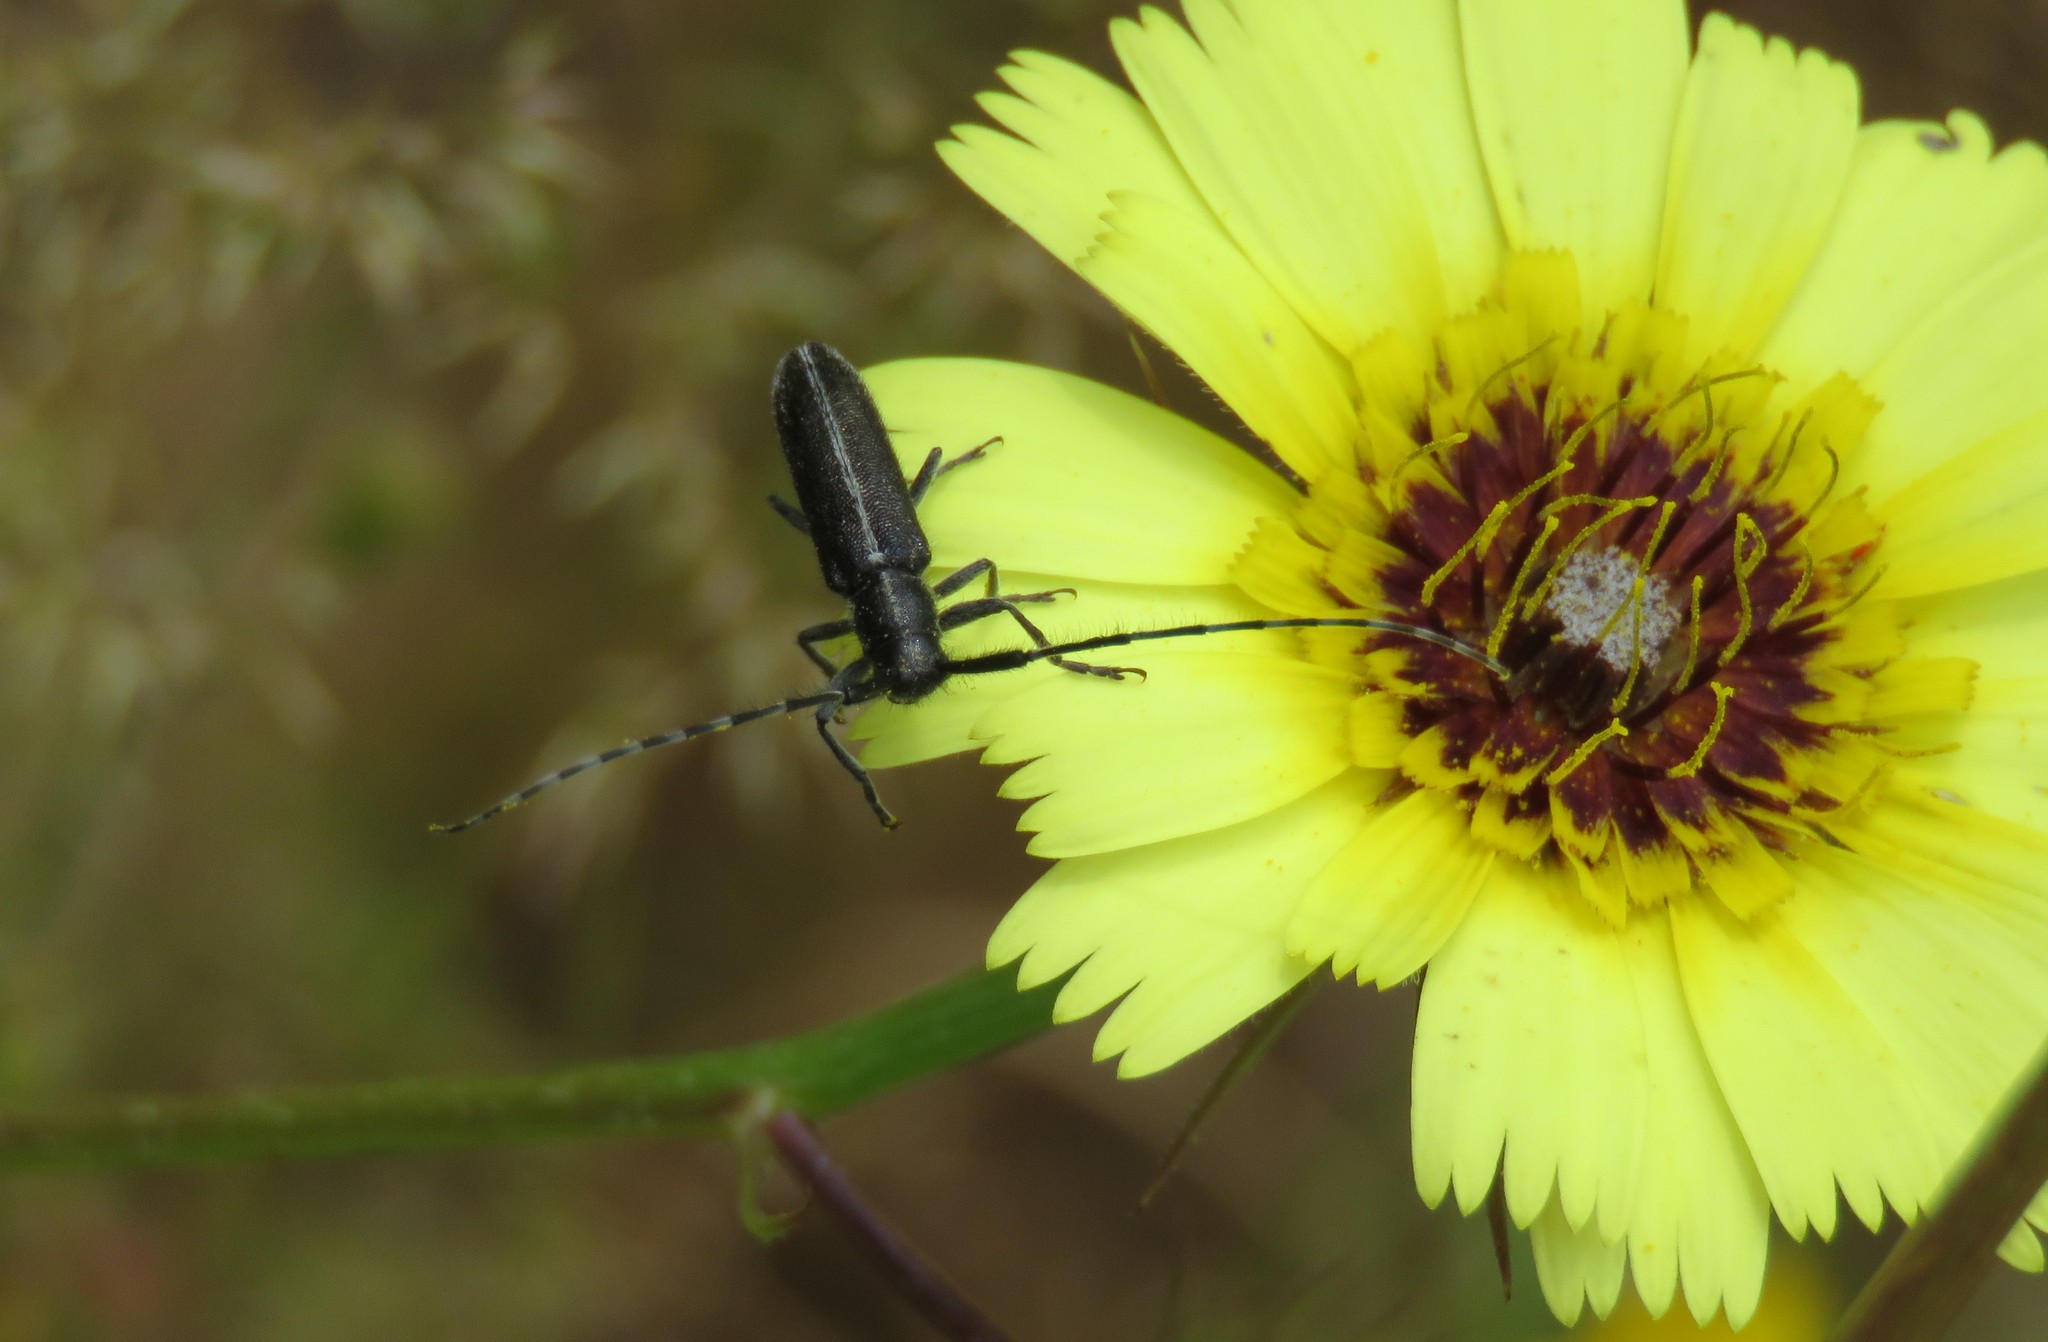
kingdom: Animalia
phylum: Arthropoda
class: Insecta
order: Coleoptera
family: Cerambycidae
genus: Agapanthia
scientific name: Agapanthia cardui
